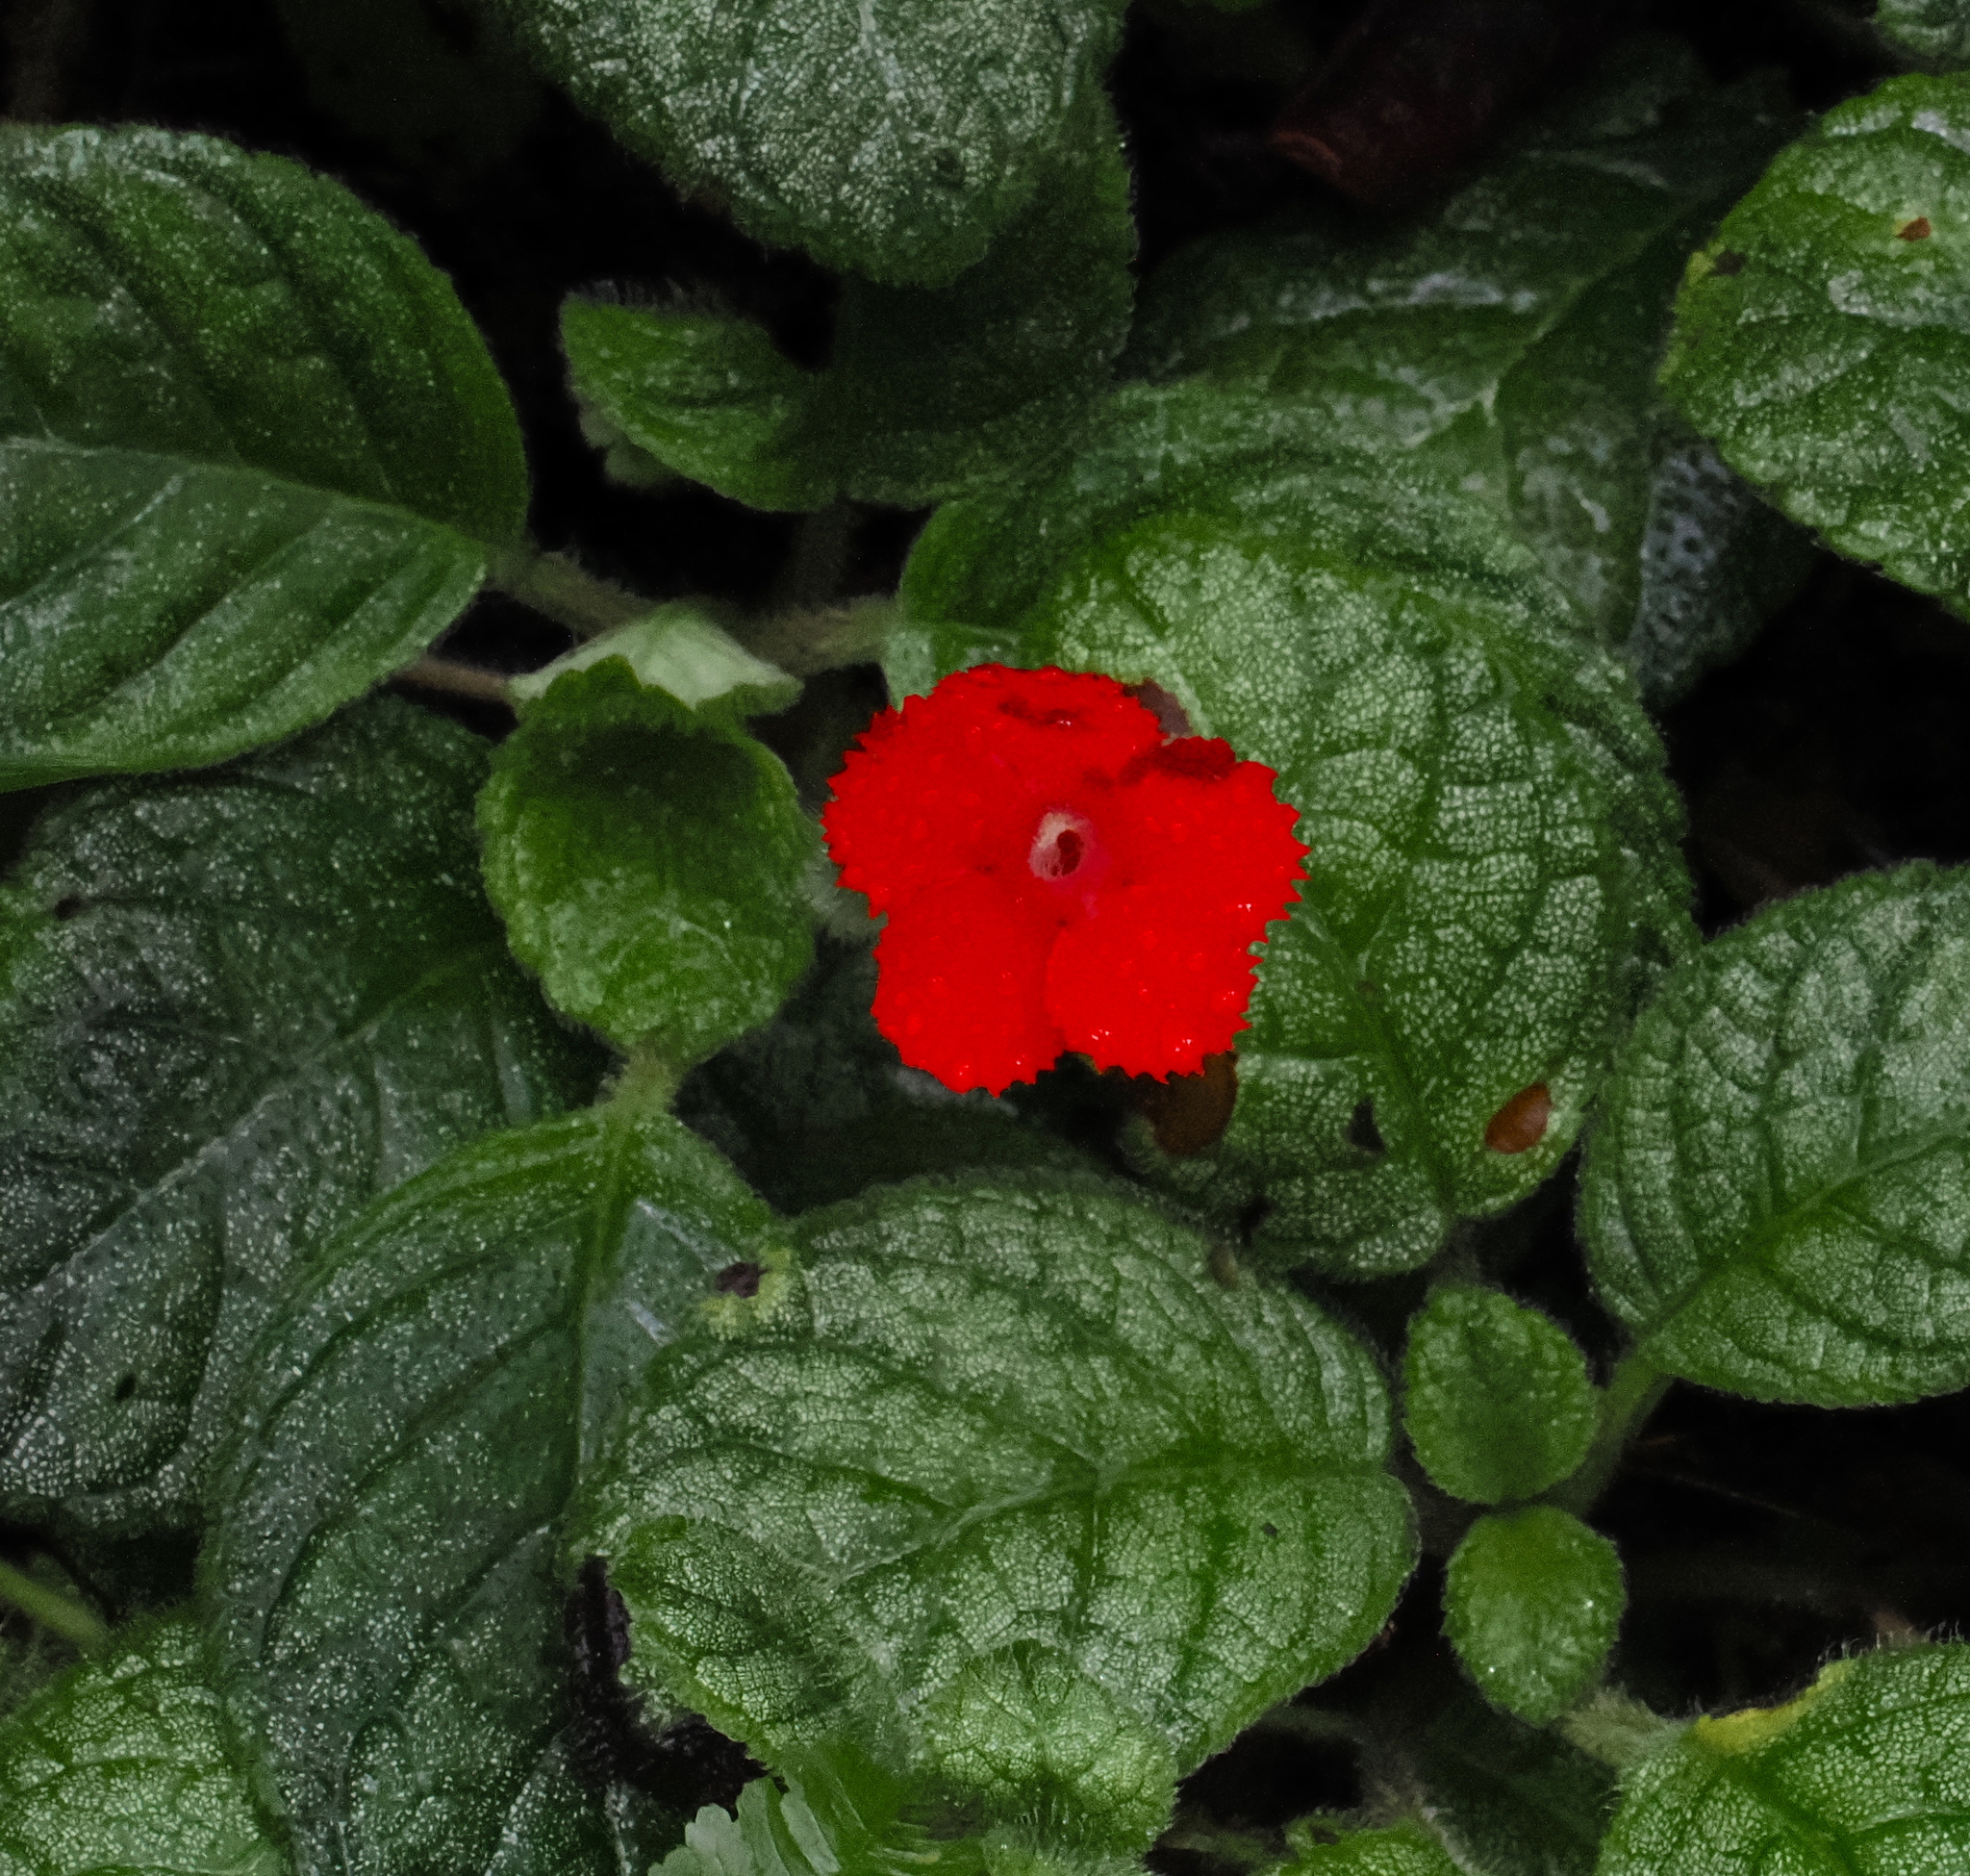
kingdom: Plantae
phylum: Tracheophyta
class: Magnoliopsida
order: Lamiales
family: Gesneriaceae
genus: Episcia
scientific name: Episcia cupreata
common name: Flame-violet
